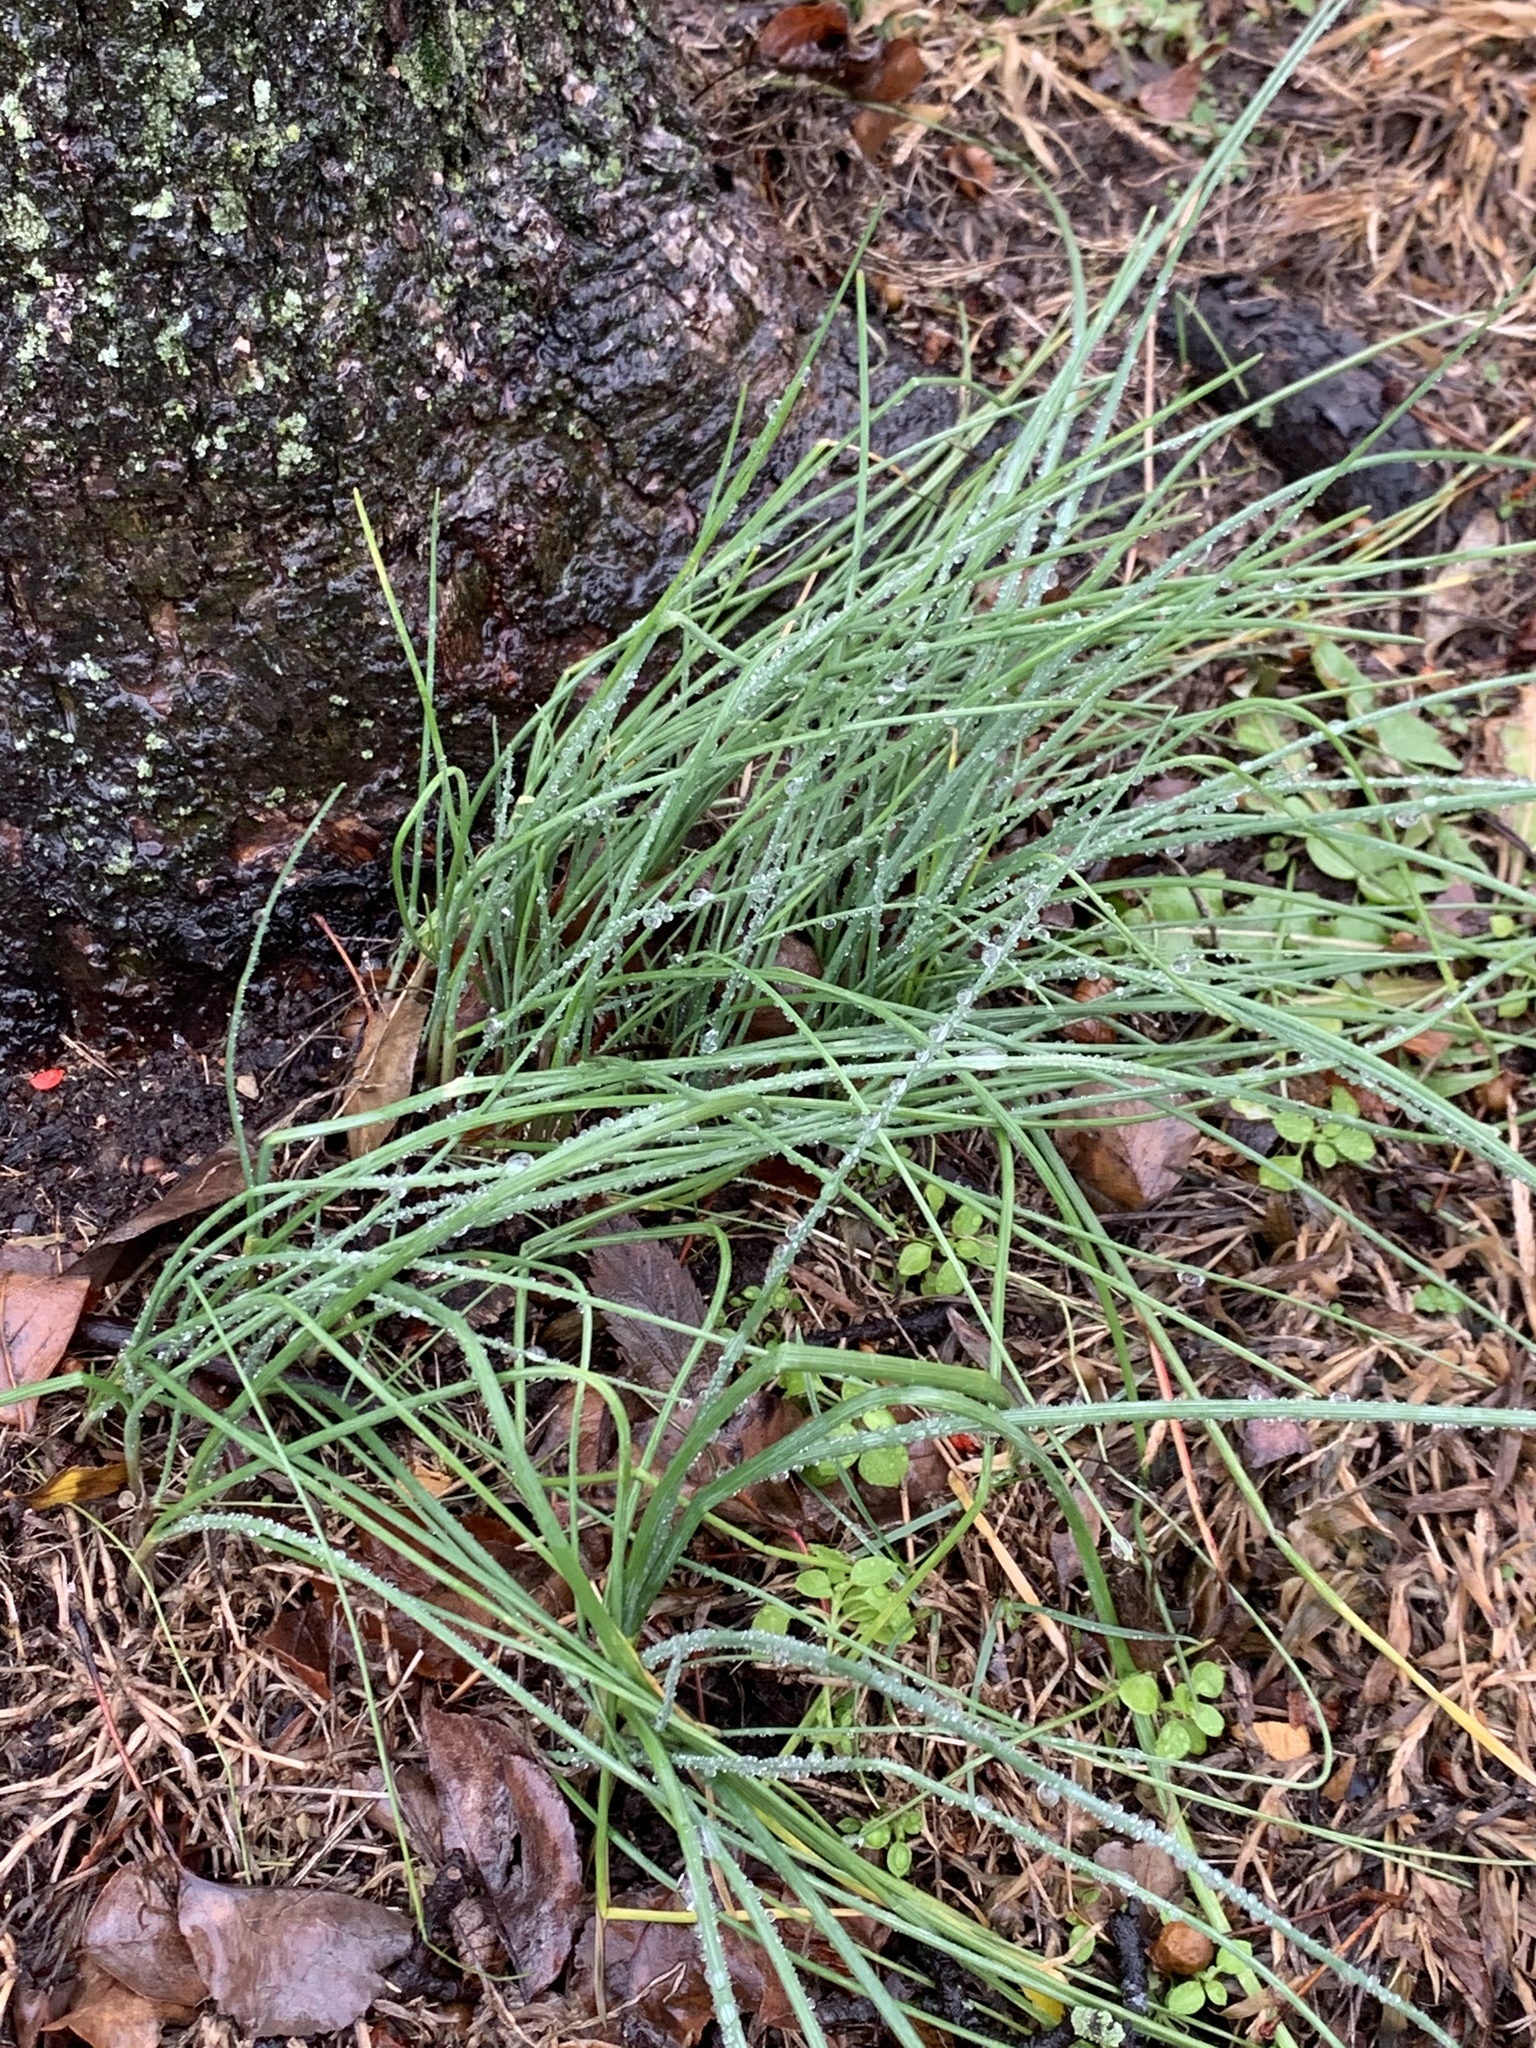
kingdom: Plantae
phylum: Tracheophyta
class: Liliopsida
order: Asparagales
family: Amaryllidaceae
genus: Allium
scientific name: Allium vineale
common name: Crow garlic
